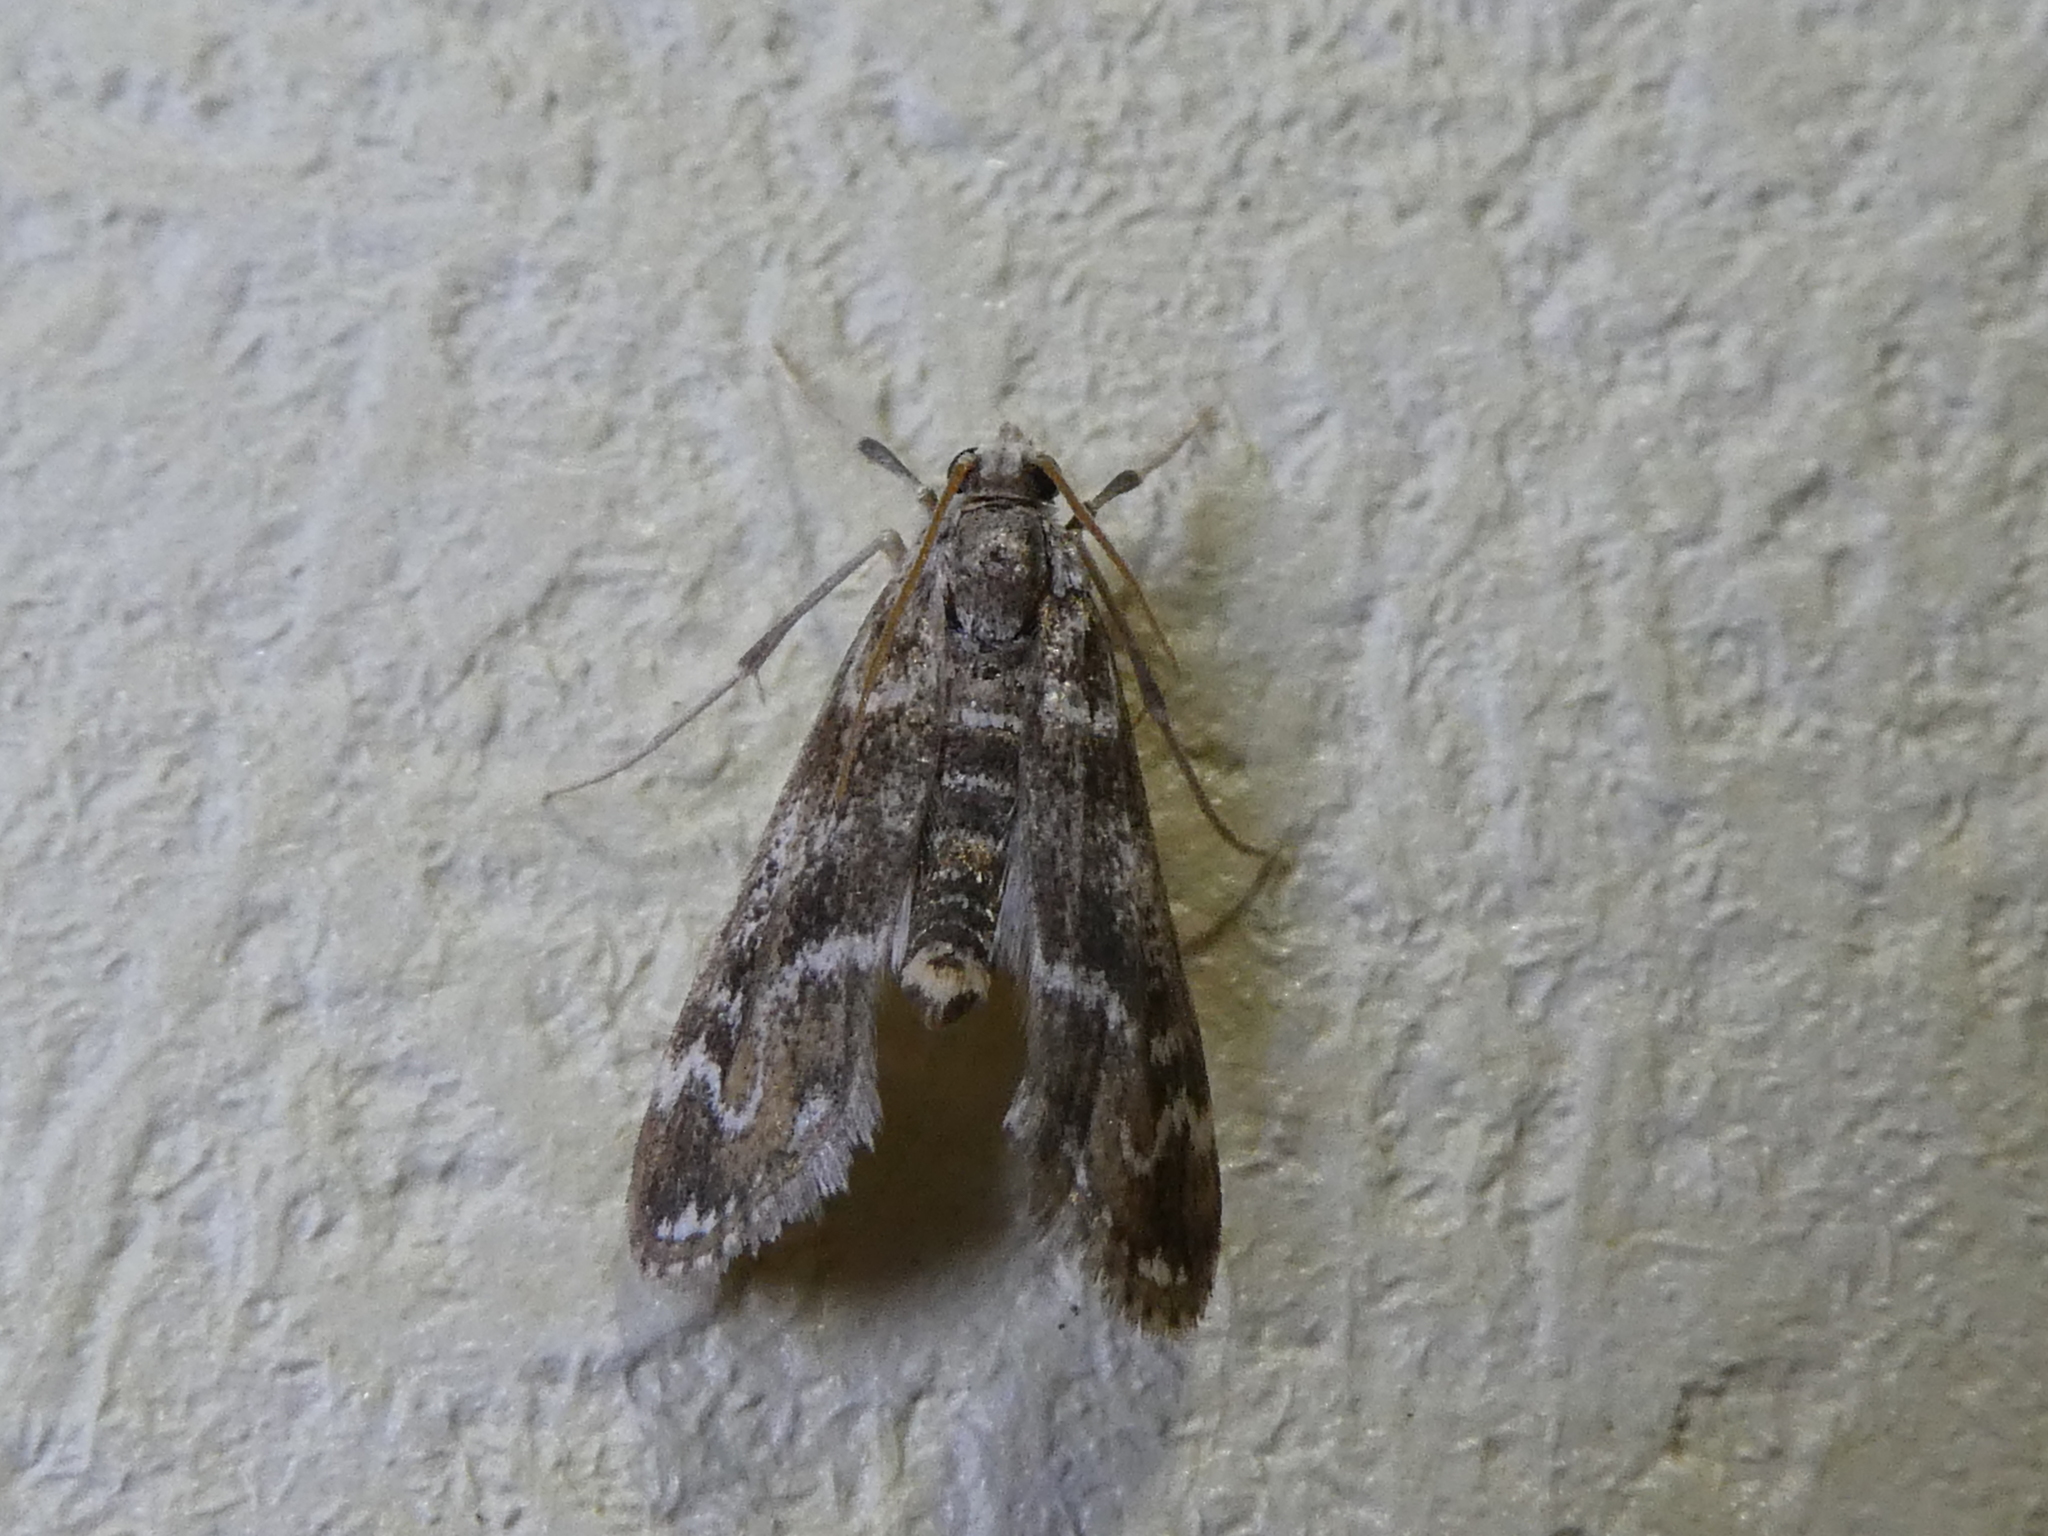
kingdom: Animalia
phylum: Arthropoda
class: Insecta
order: Lepidoptera
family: Crambidae
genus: Hygraula
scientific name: Hygraula nitens
